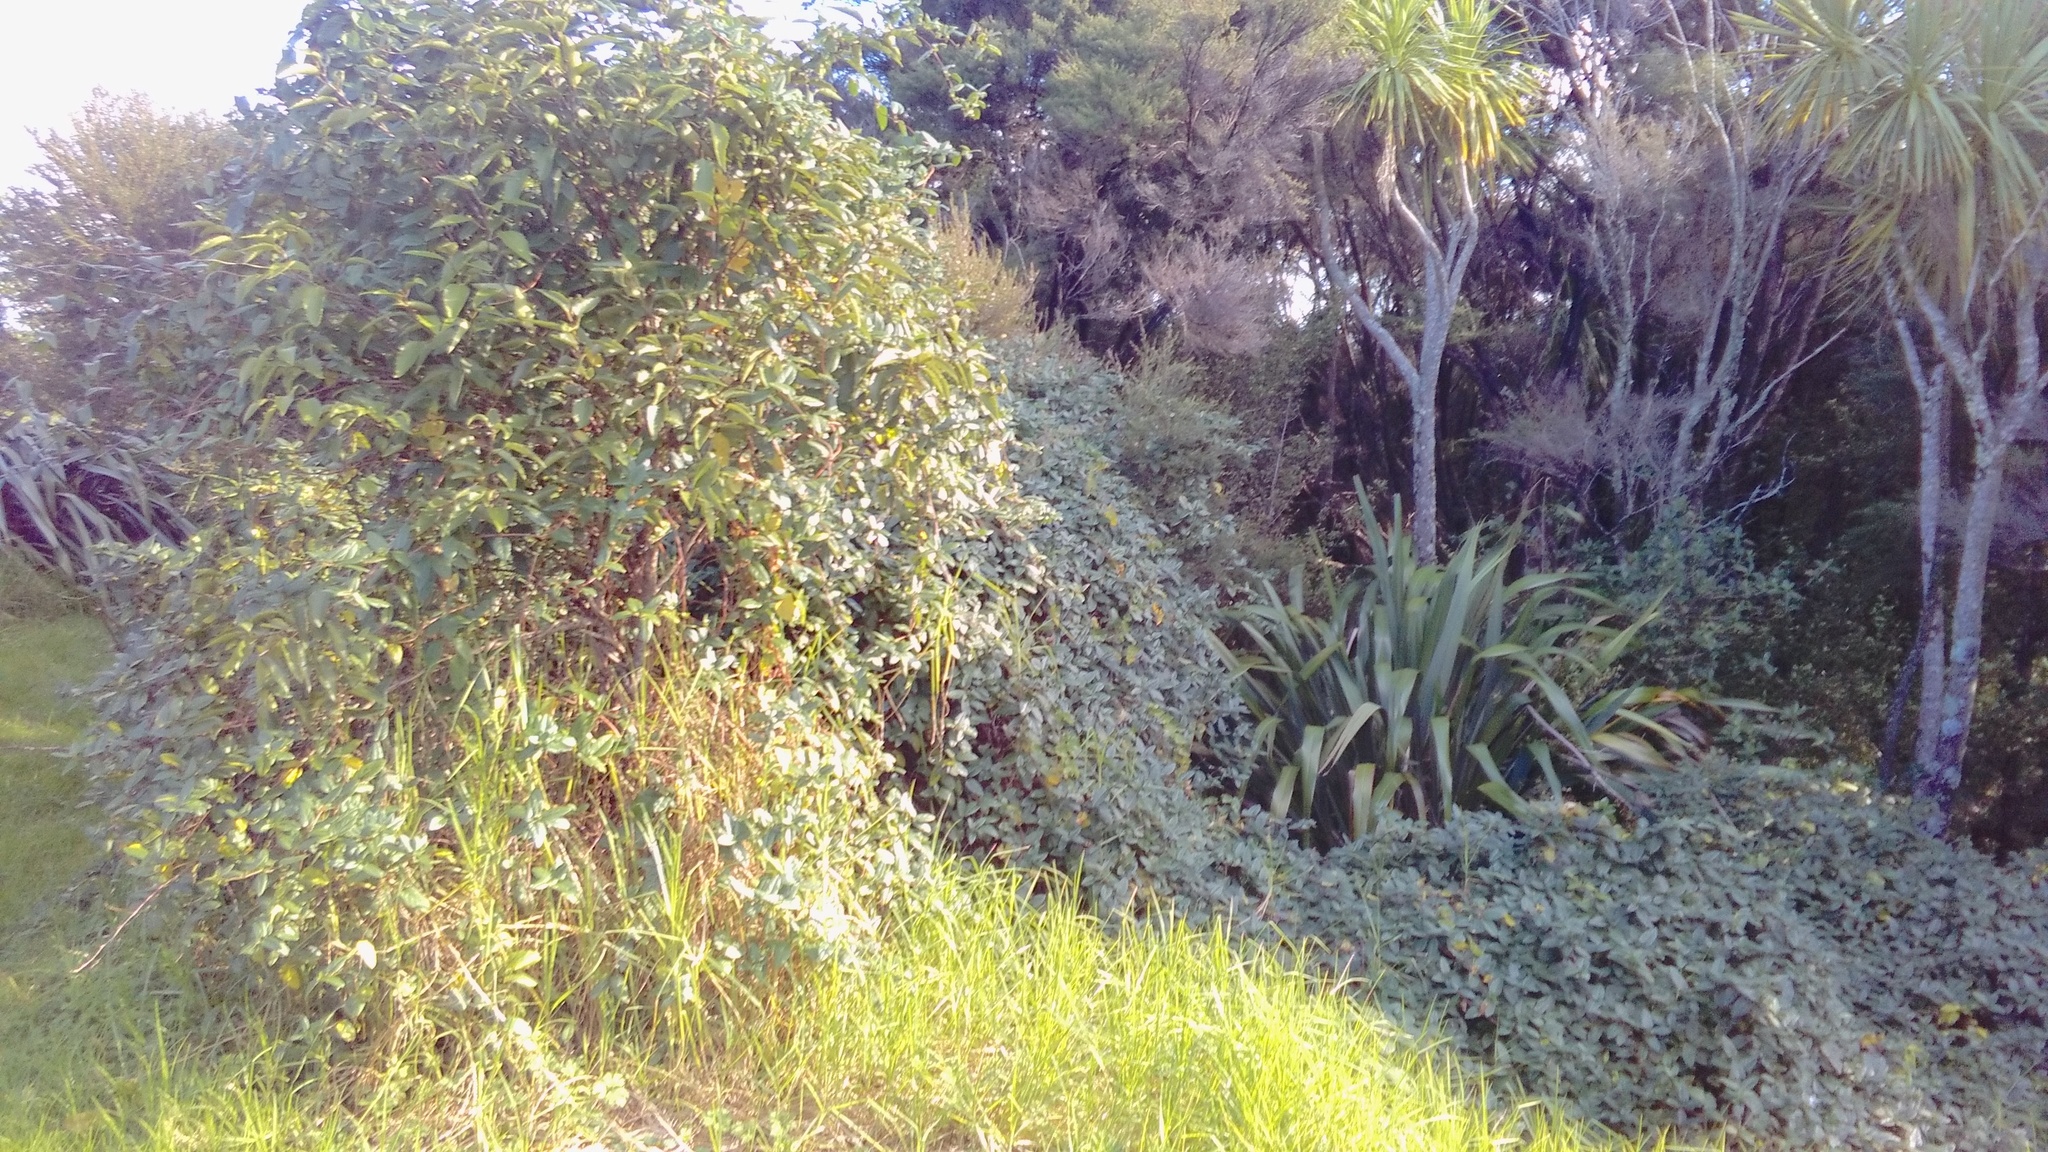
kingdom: Plantae
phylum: Tracheophyta
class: Liliopsida
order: Poales
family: Poaceae
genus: Cenchrus
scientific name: Cenchrus clandestinus
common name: Kikuyugrass
